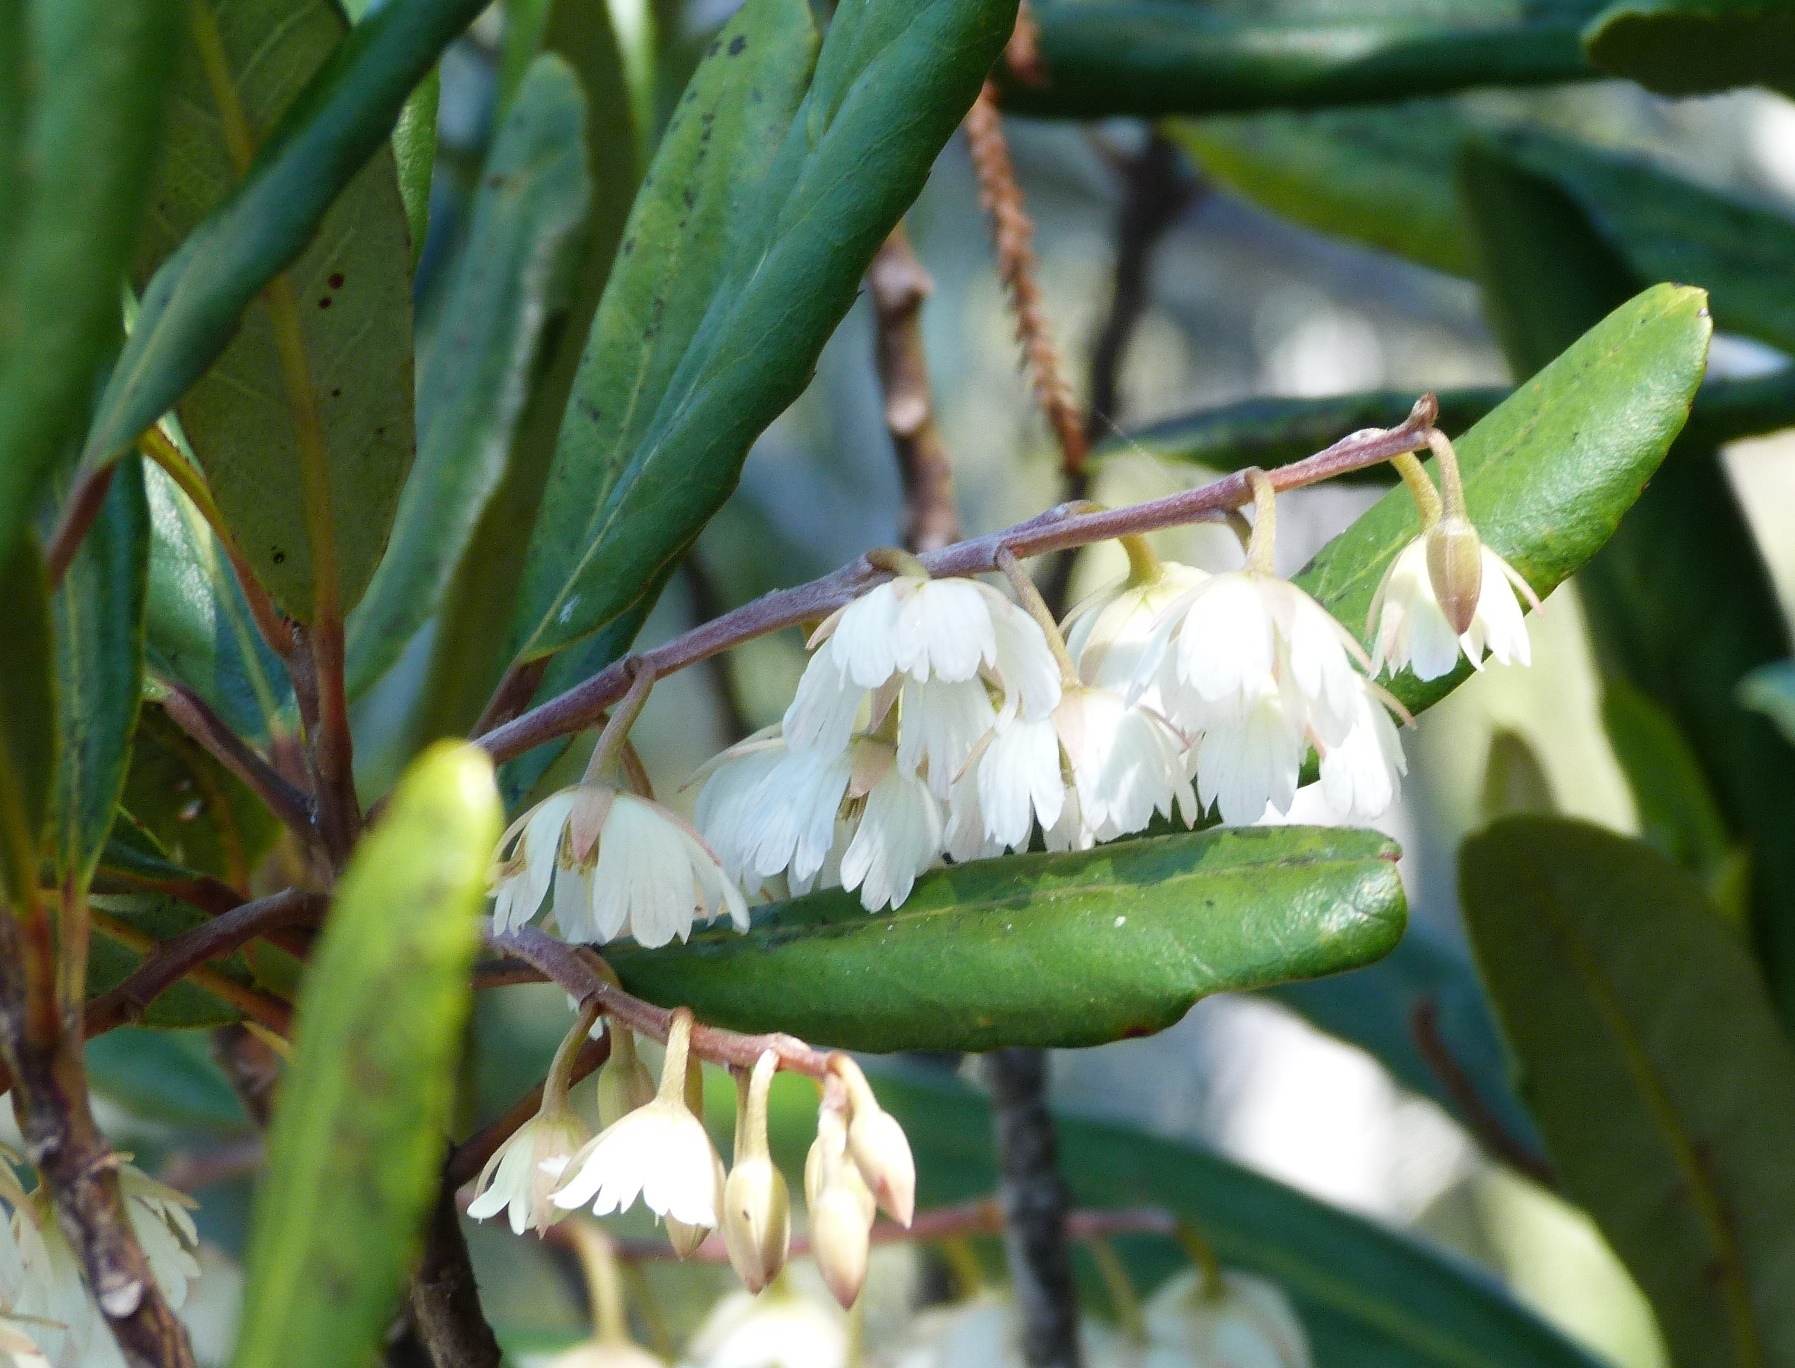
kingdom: Plantae
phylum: Tracheophyta
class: Magnoliopsida
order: Oxalidales
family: Elaeocarpaceae
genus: Elaeocarpus
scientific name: Elaeocarpus dentatus
